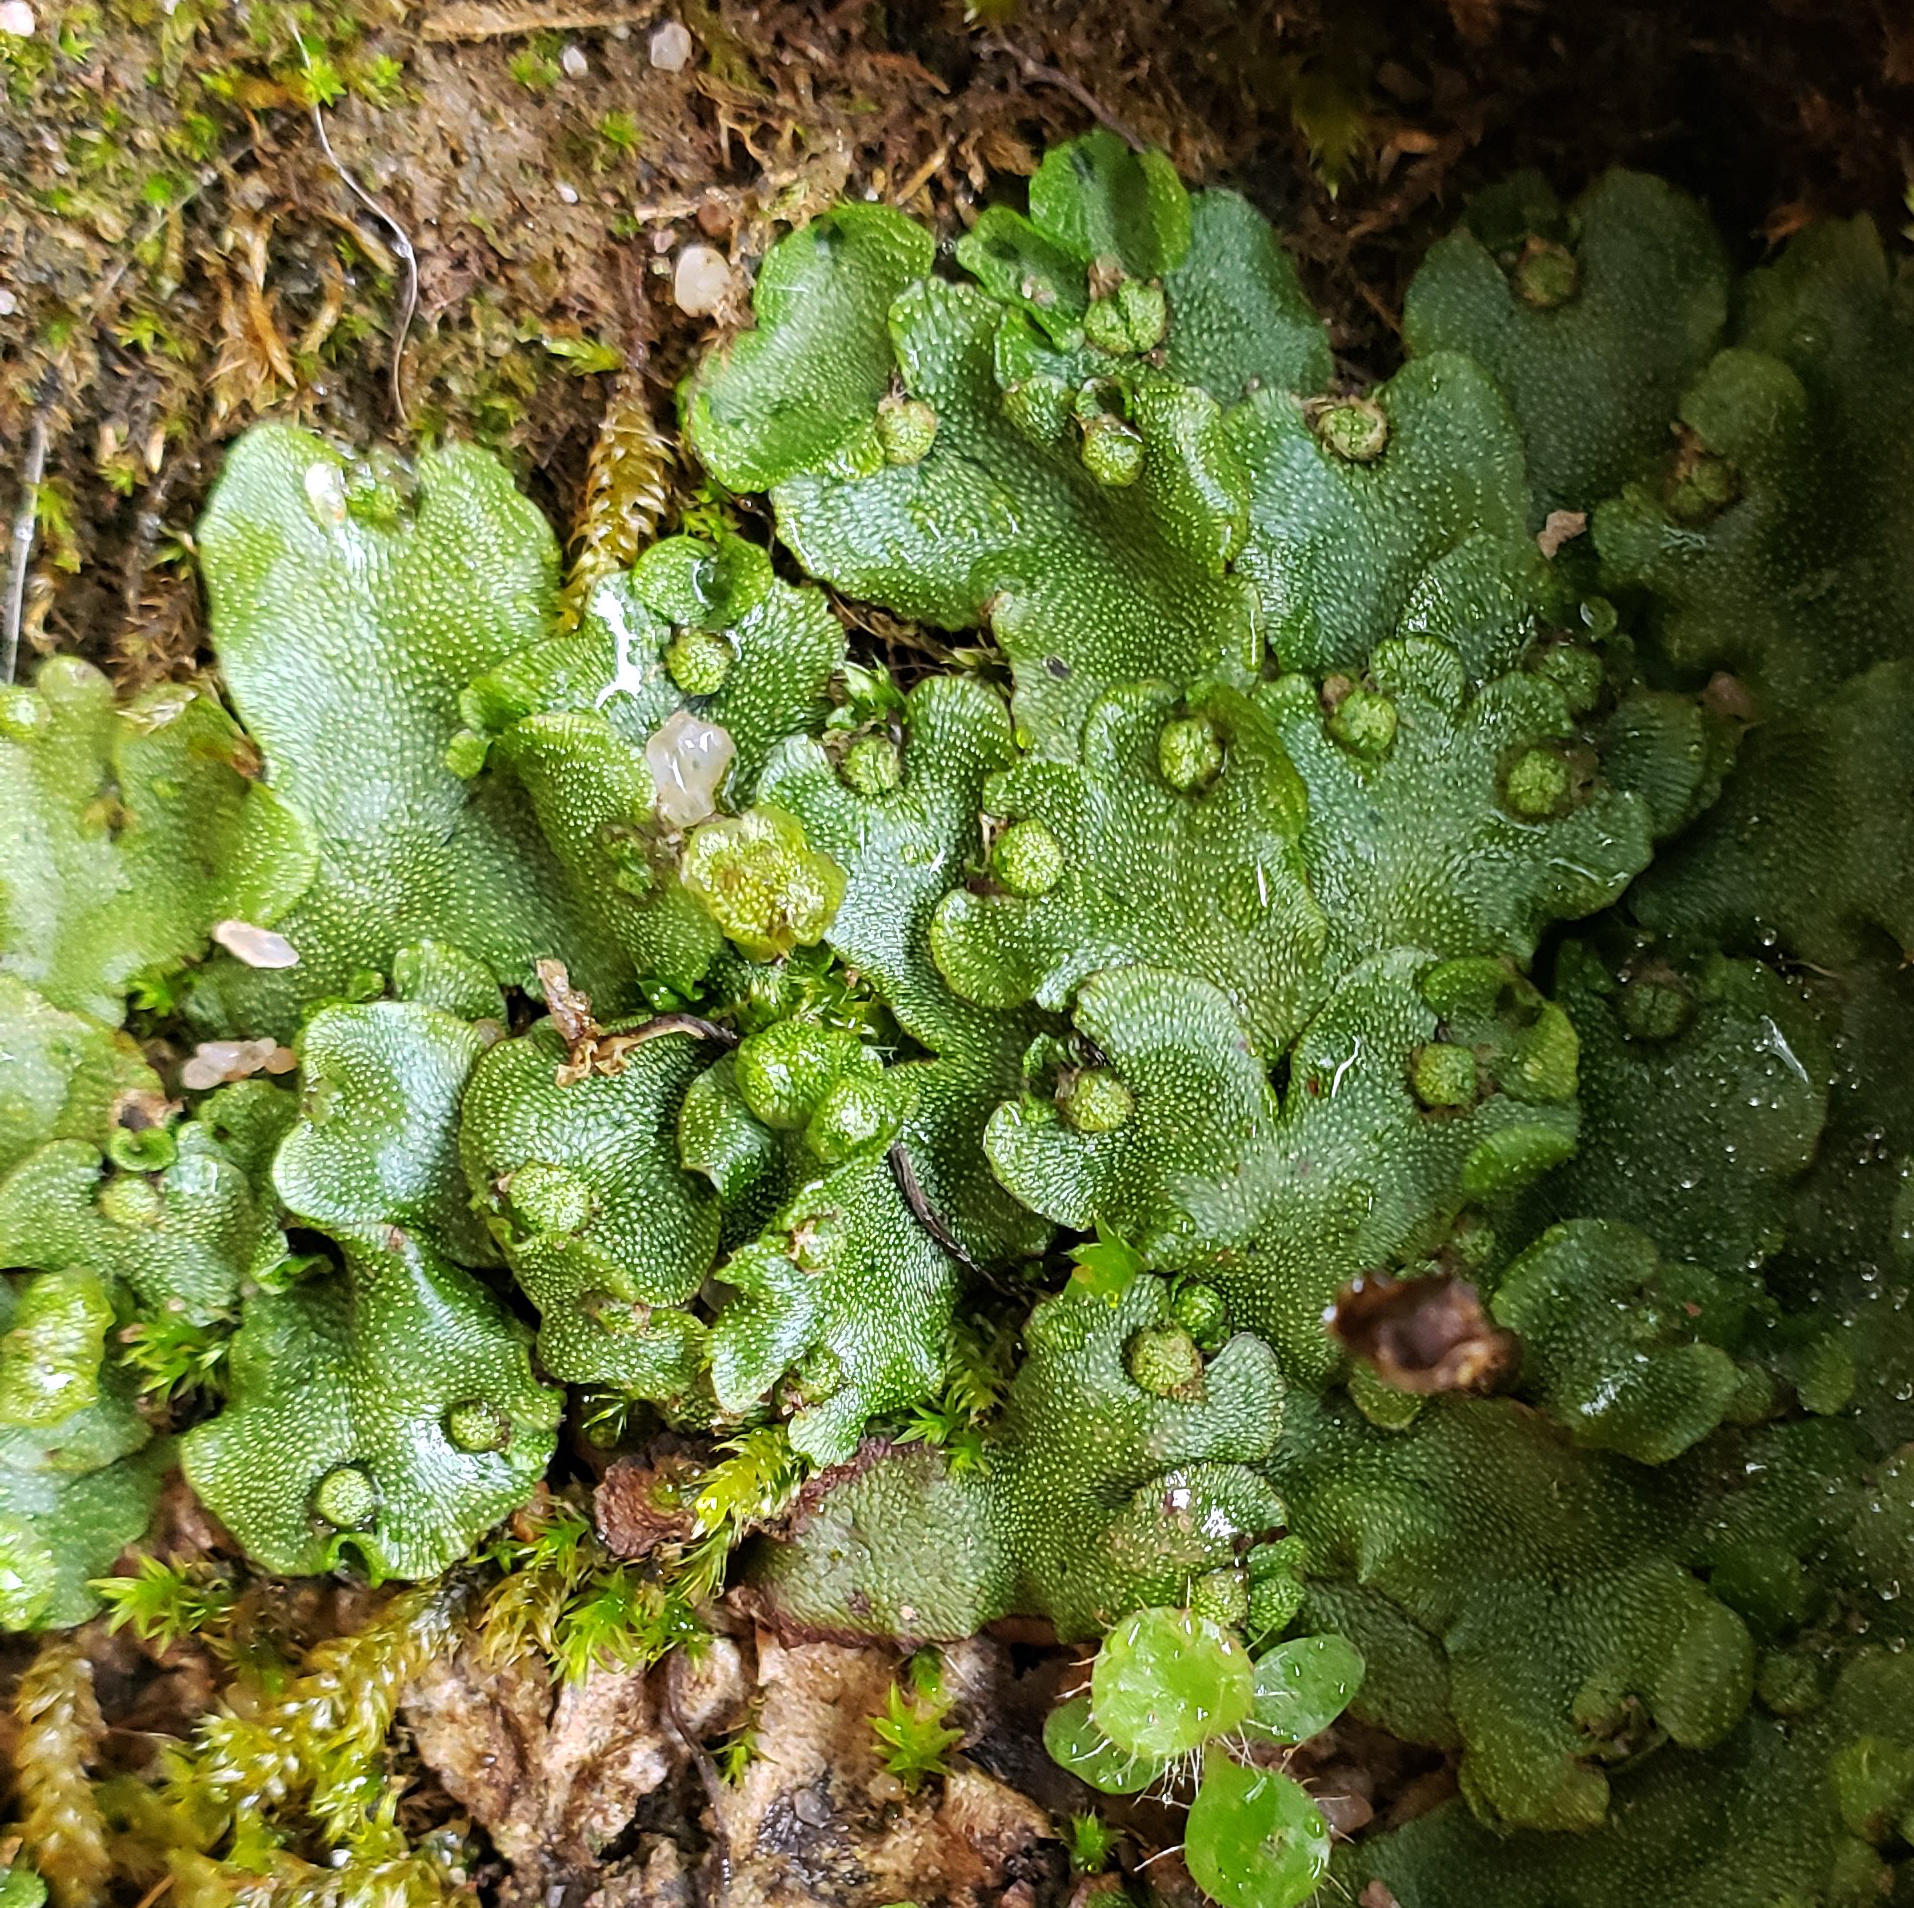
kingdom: Plantae
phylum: Marchantiophyta
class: Marchantiopsida
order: Marchantiales
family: Marchantiaceae
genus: Marchantia
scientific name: Marchantia quadrata
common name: Narrow mushroom-headed liverwort
